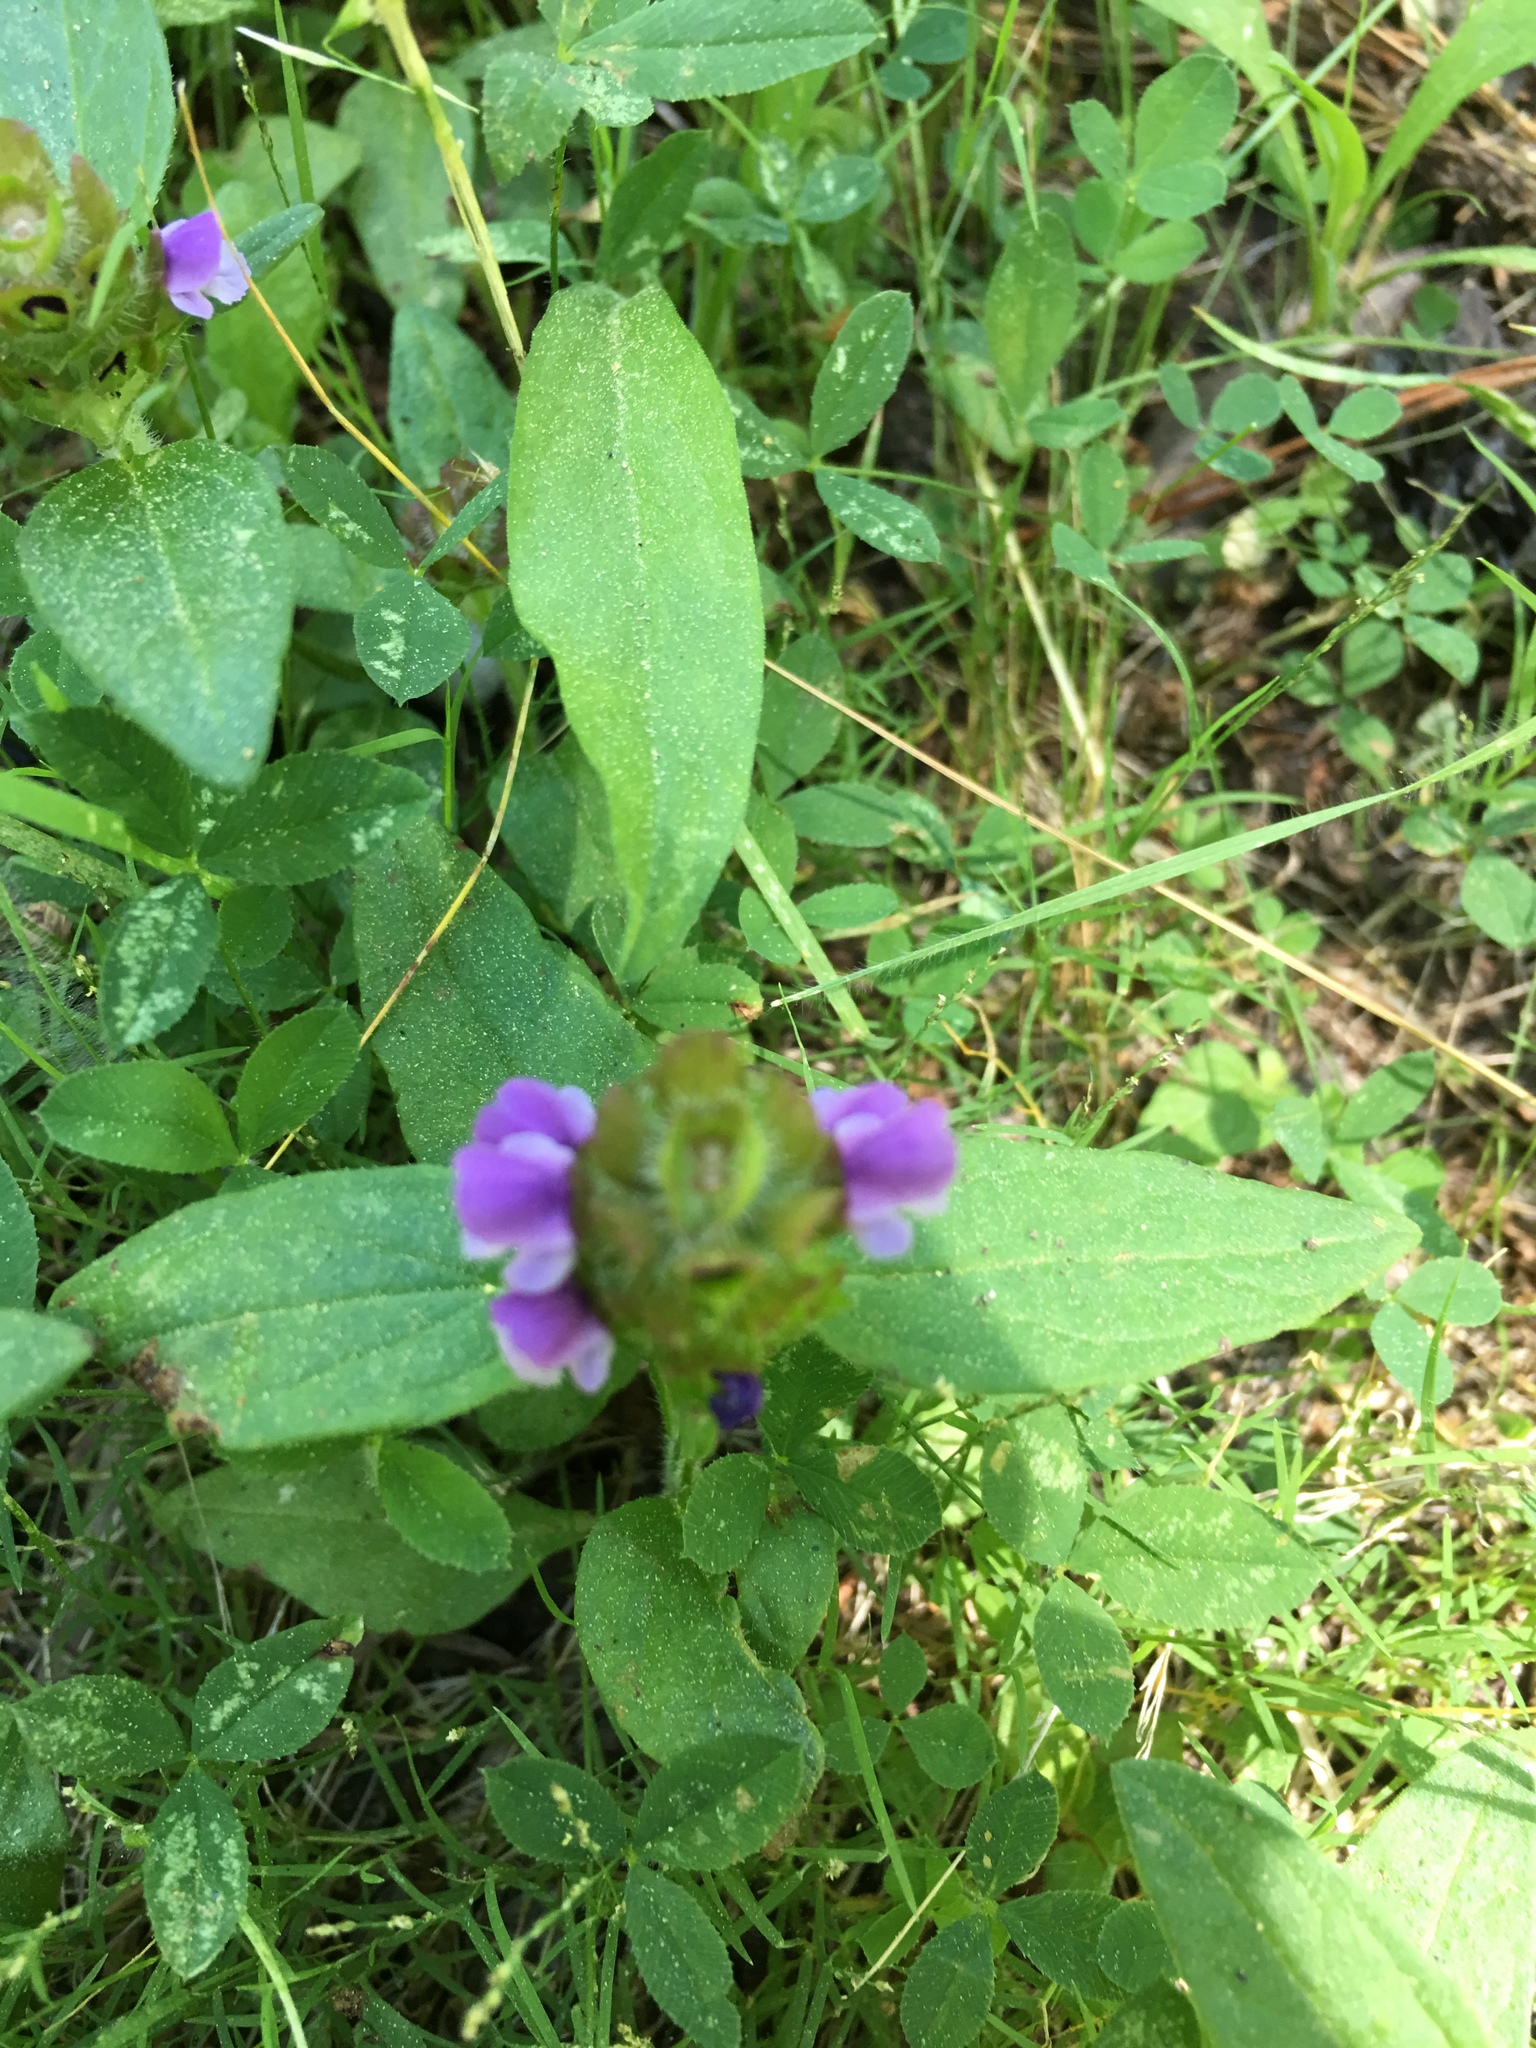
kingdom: Plantae
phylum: Tracheophyta
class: Magnoliopsida
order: Lamiales
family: Lamiaceae
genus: Prunella
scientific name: Prunella vulgaris
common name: Heal-all
